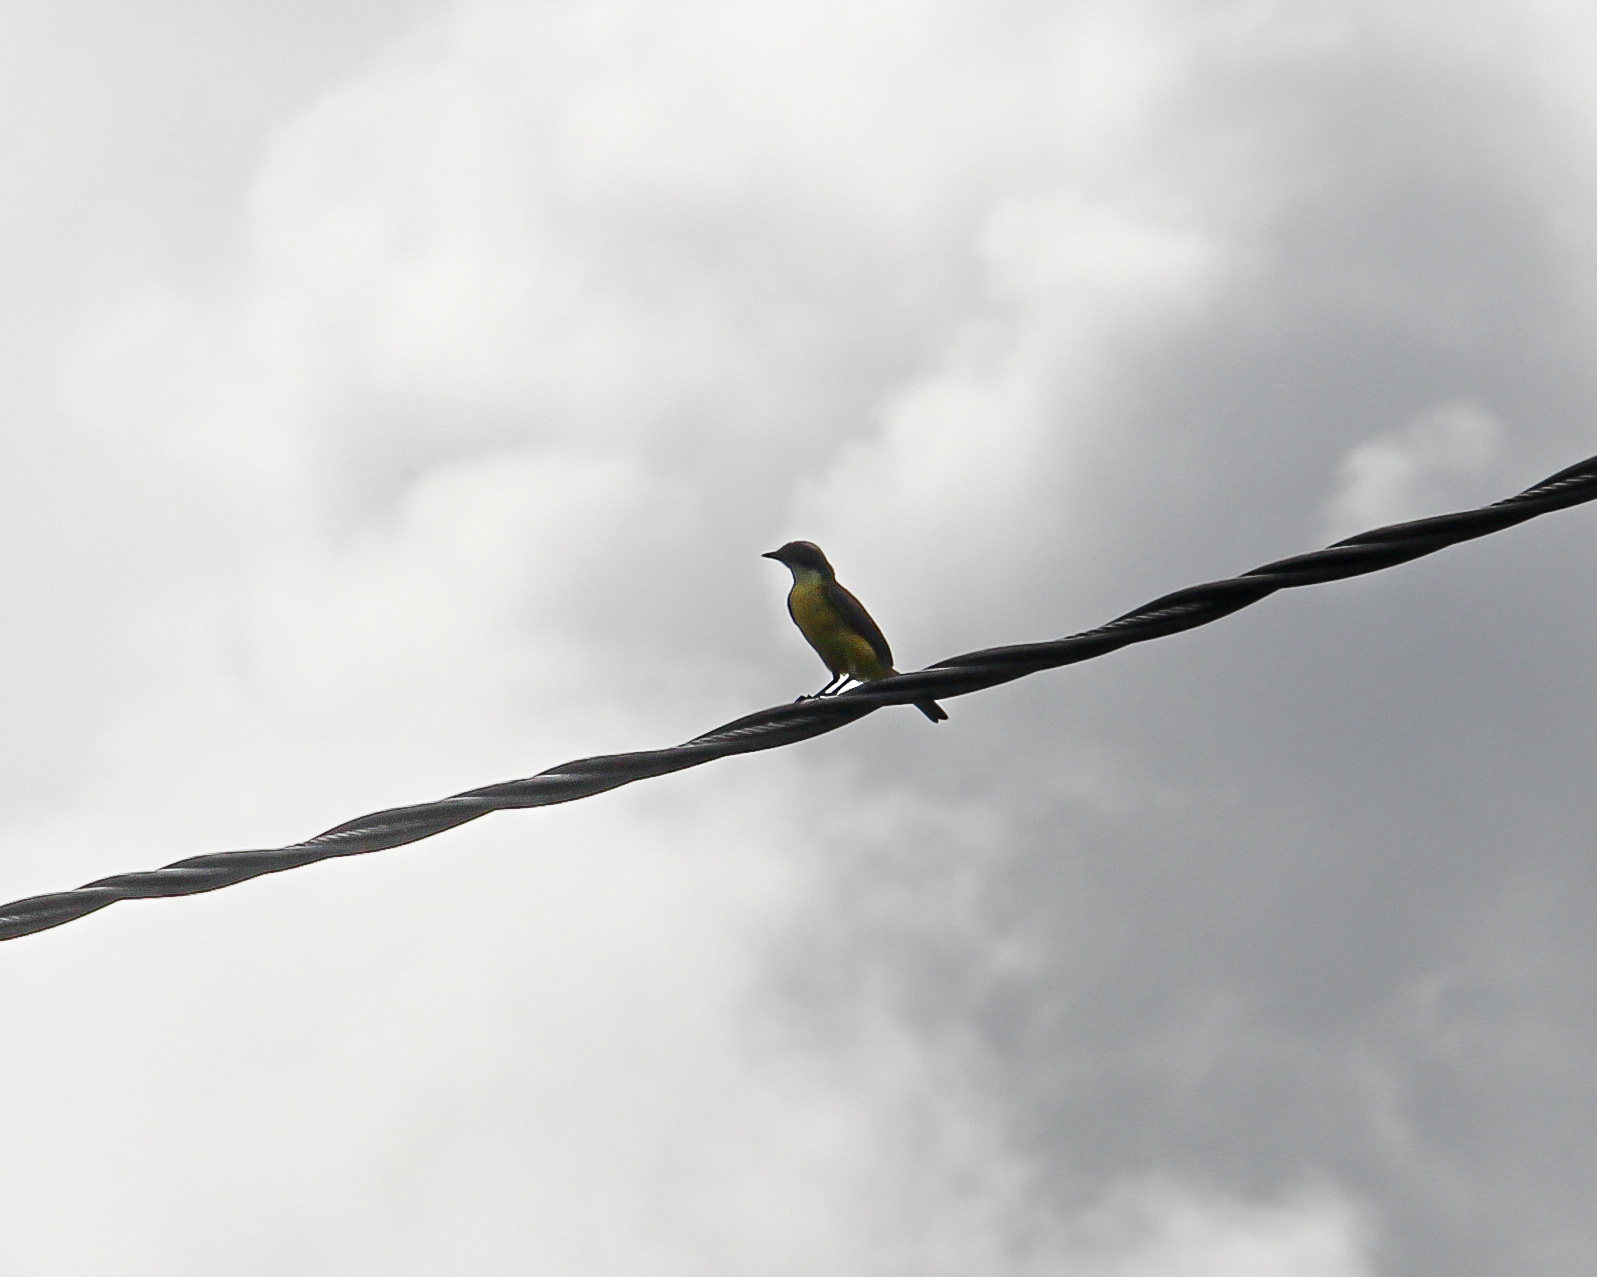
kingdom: Animalia
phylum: Chordata
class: Aves
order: Passeriformes
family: Tyrannidae
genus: Myiozetetes
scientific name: Myiozetetes similis
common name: Social flycatcher
